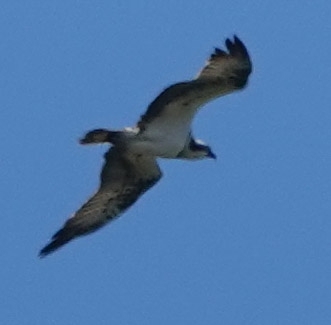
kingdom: Animalia
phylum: Chordata
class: Aves
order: Accipitriformes
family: Pandionidae
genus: Pandion
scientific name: Pandion haliaetus
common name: Osprey
